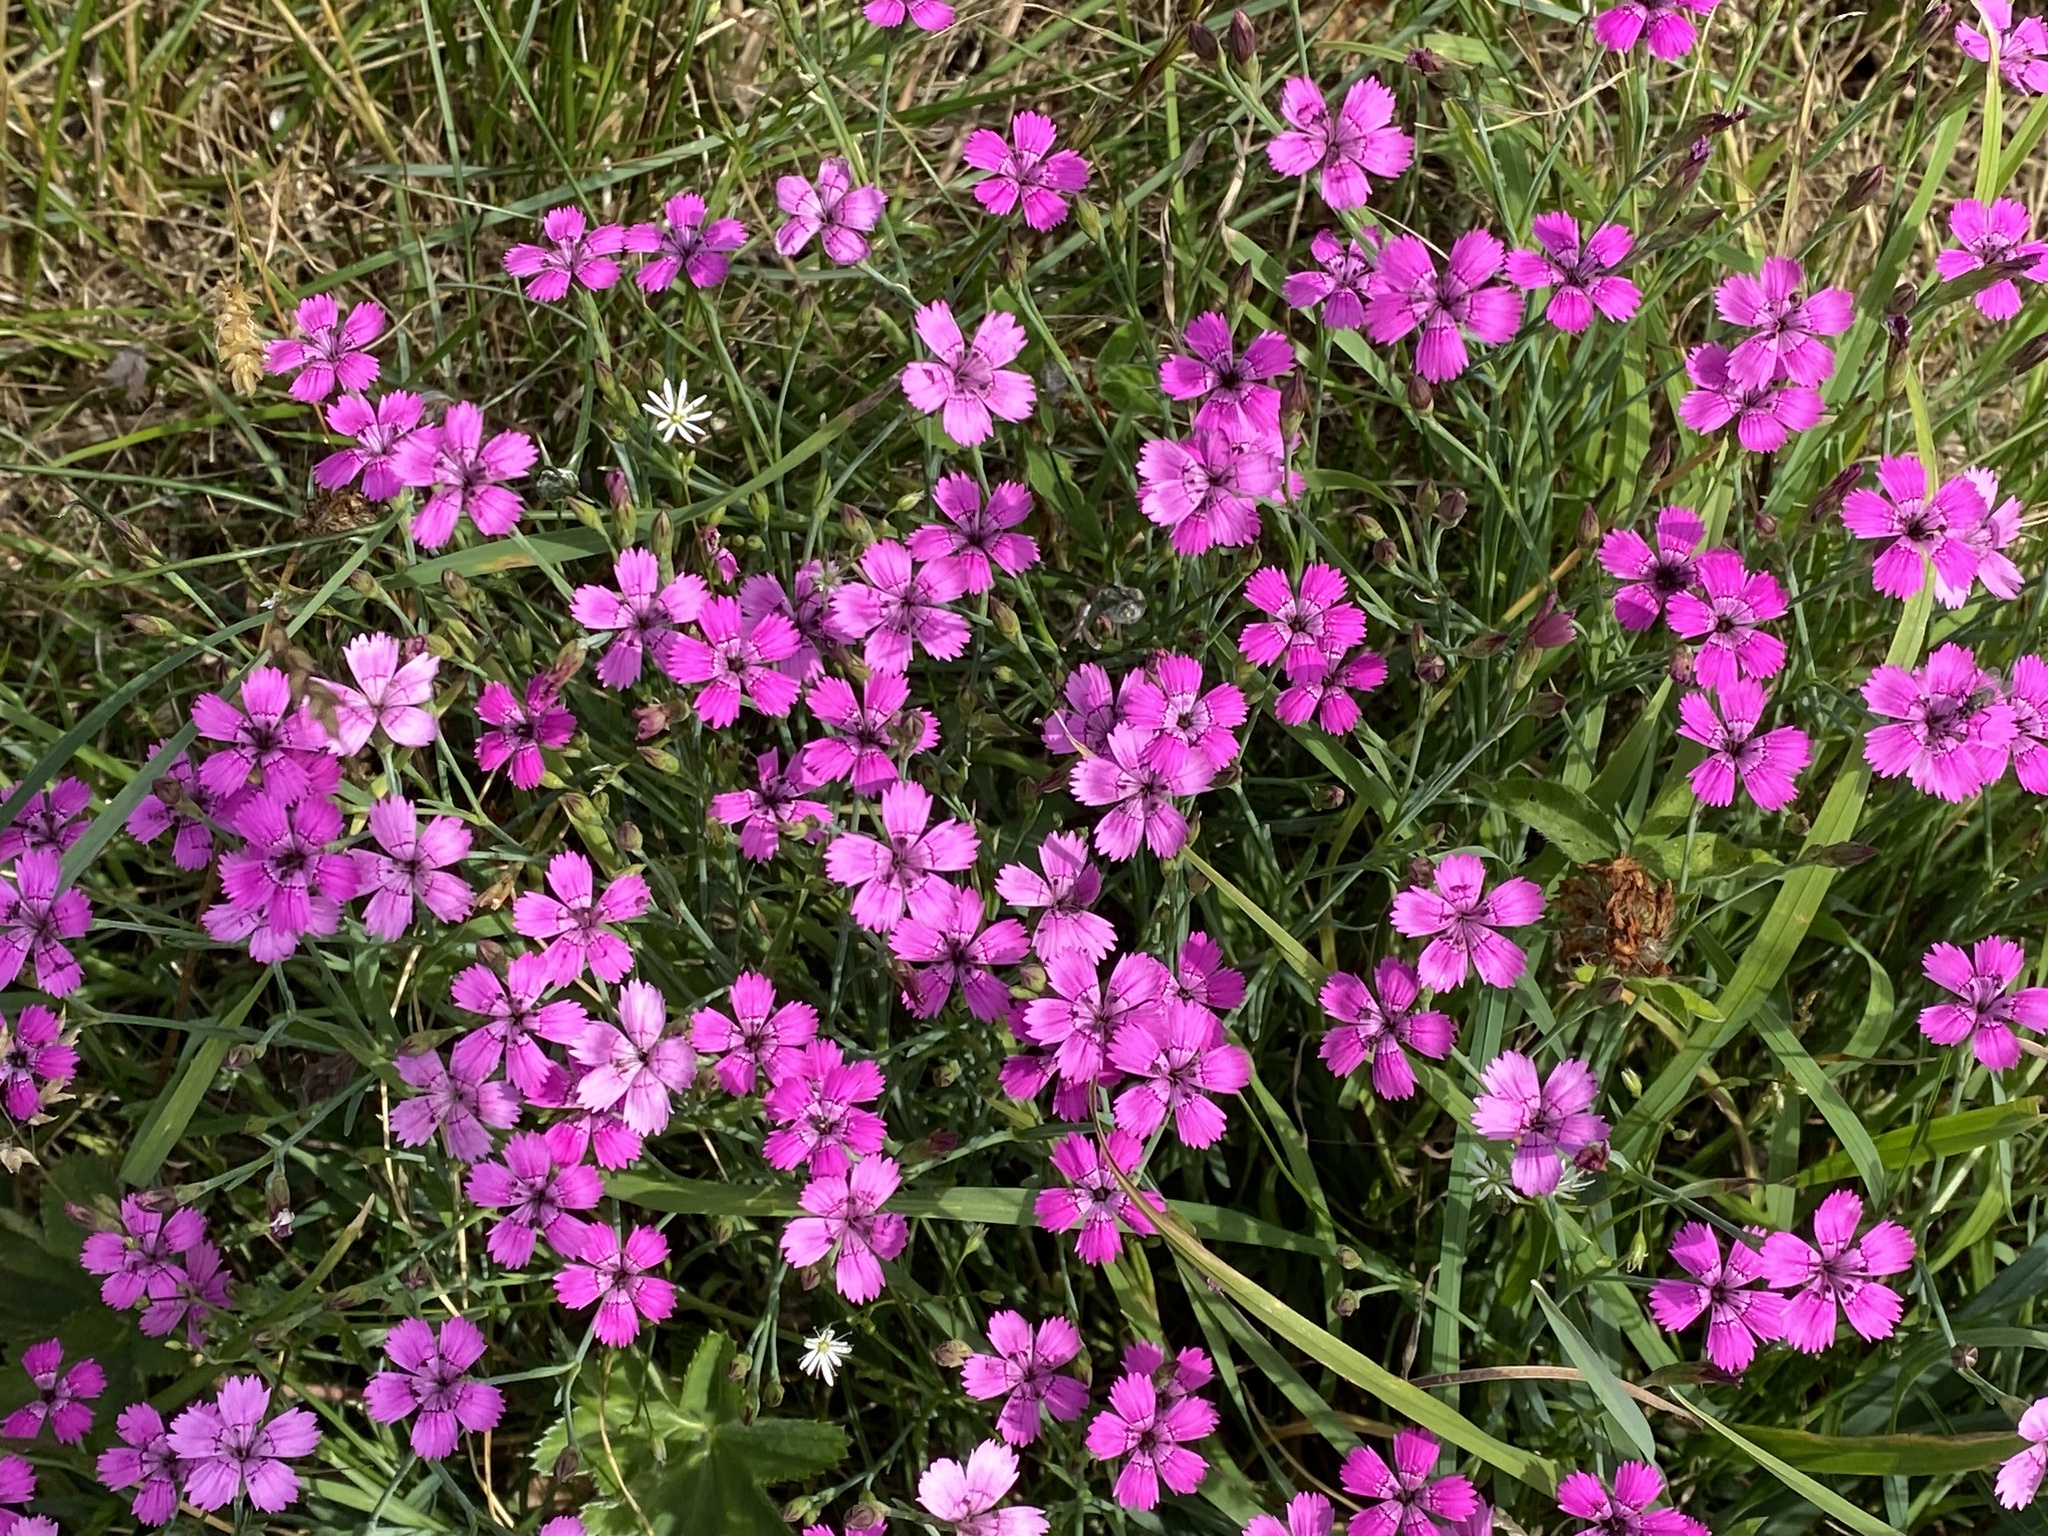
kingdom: Plantae
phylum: Tracheophyta
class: Magnoliopsida
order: Caryophyllales
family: Caryophyllaceae
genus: Dianthus
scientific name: Dianthus deltoides
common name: Maiden pink
